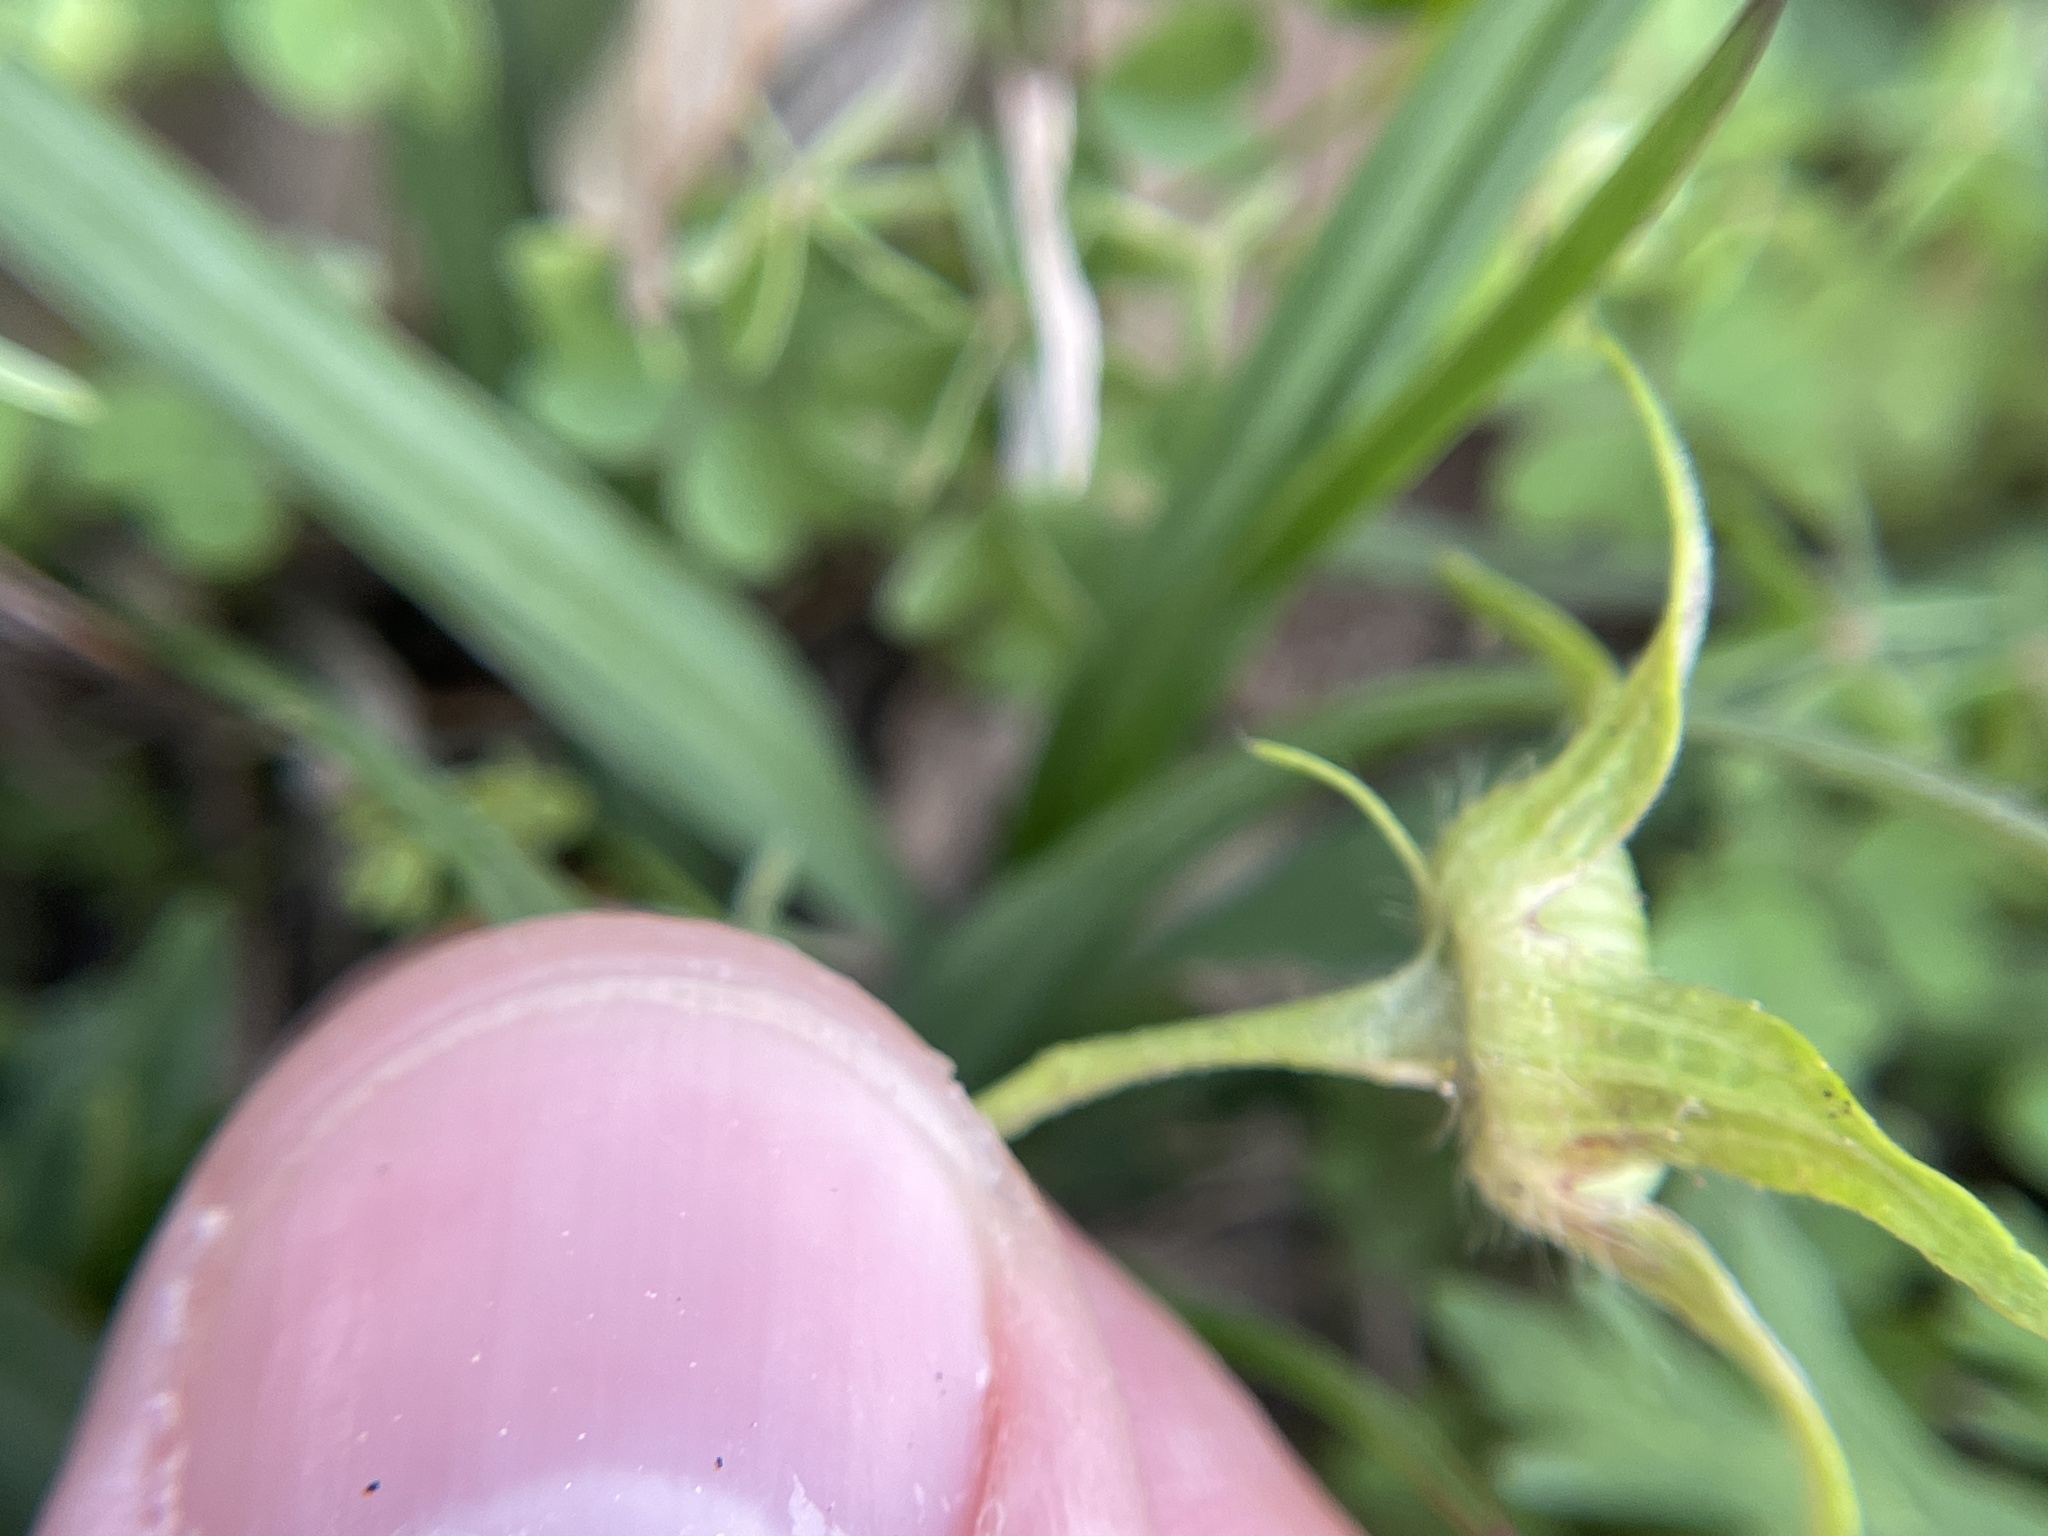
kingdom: Plantae
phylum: Tracheophyta
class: Magnoliopsida
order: Malvales
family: Malvaceae
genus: Callirhoe
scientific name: Callirhoe involucrata
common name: Purple poppy-mallow
